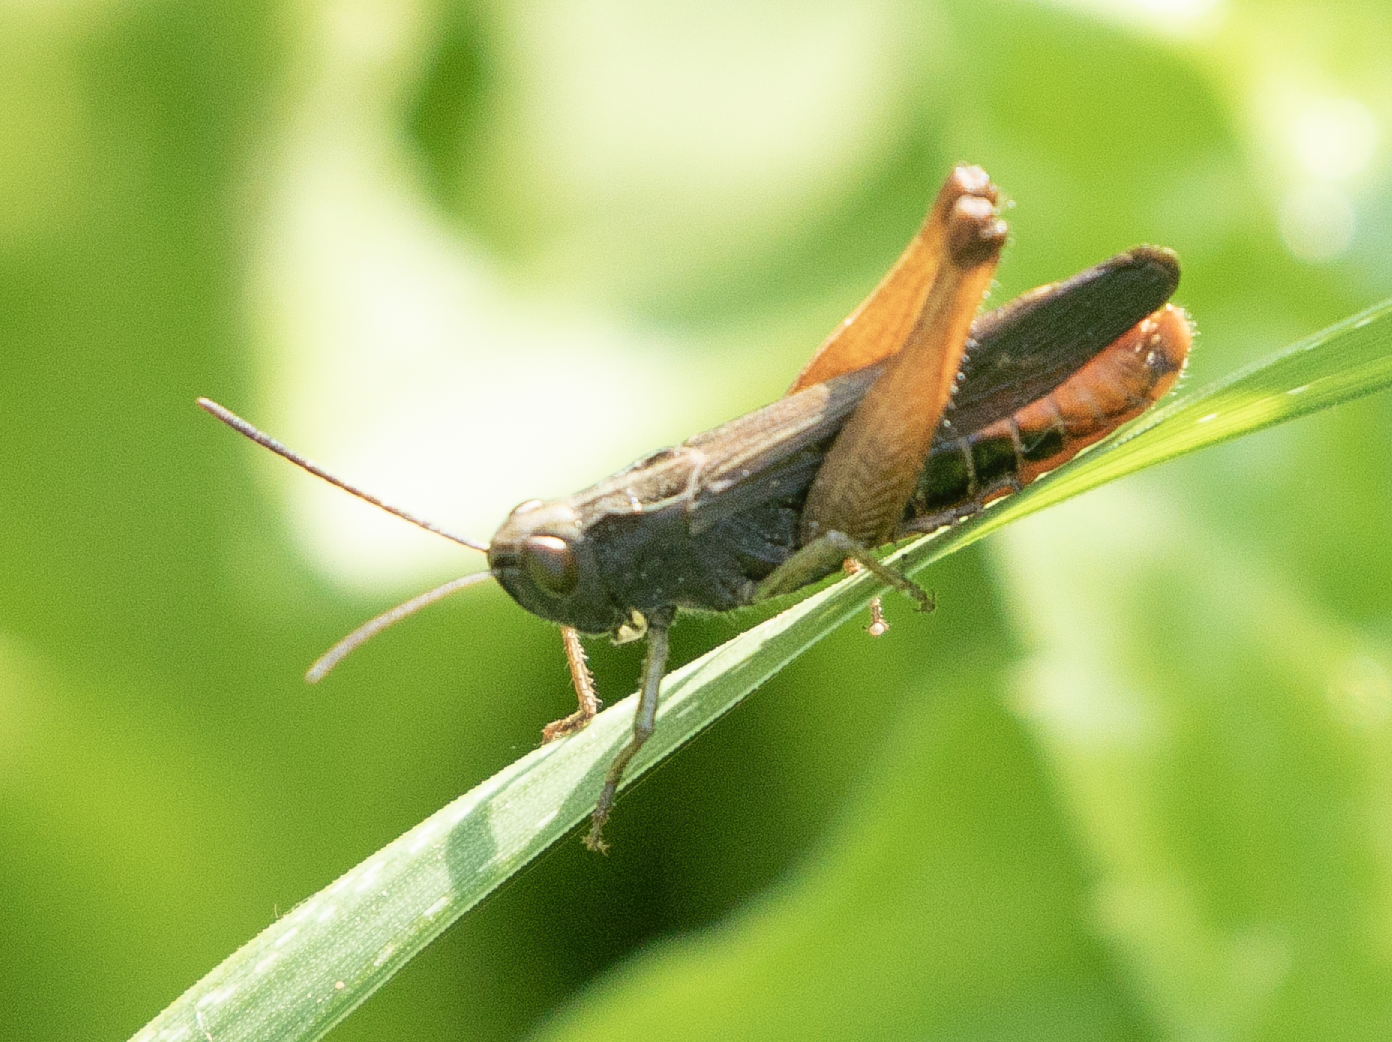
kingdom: Animalia
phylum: Arthropoda
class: Insecta
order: Orthoptera
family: Acrididae
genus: Omocestus
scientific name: Omocestus rufipes
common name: Woodland grasshopper
